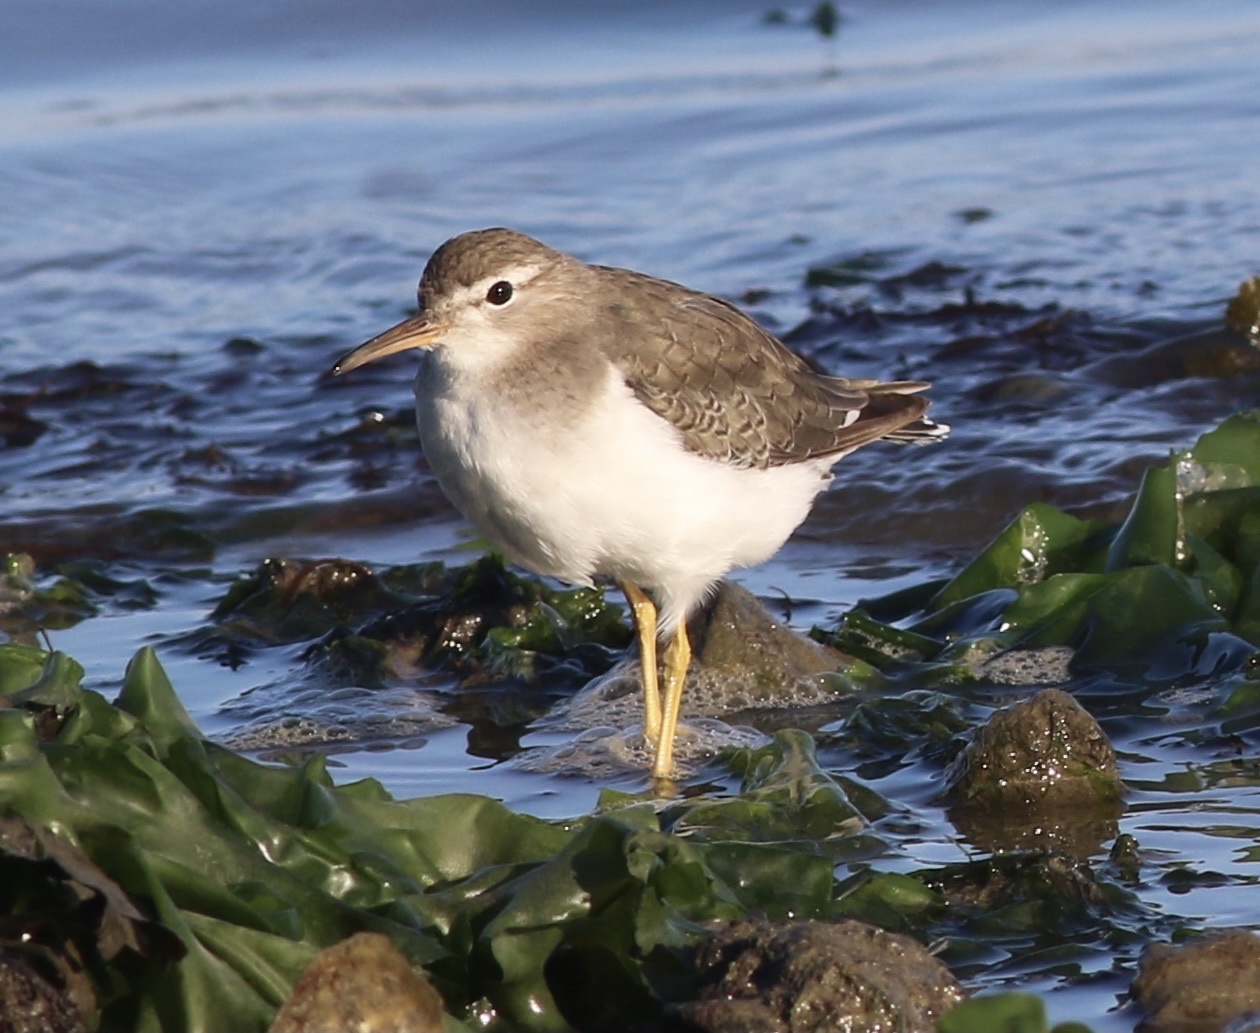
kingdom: Animalia
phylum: Chordata
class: Aves
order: Charadriiformes
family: Scolopacidae
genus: Actitis
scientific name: Actitis macularius
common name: Spotted sandpiper
